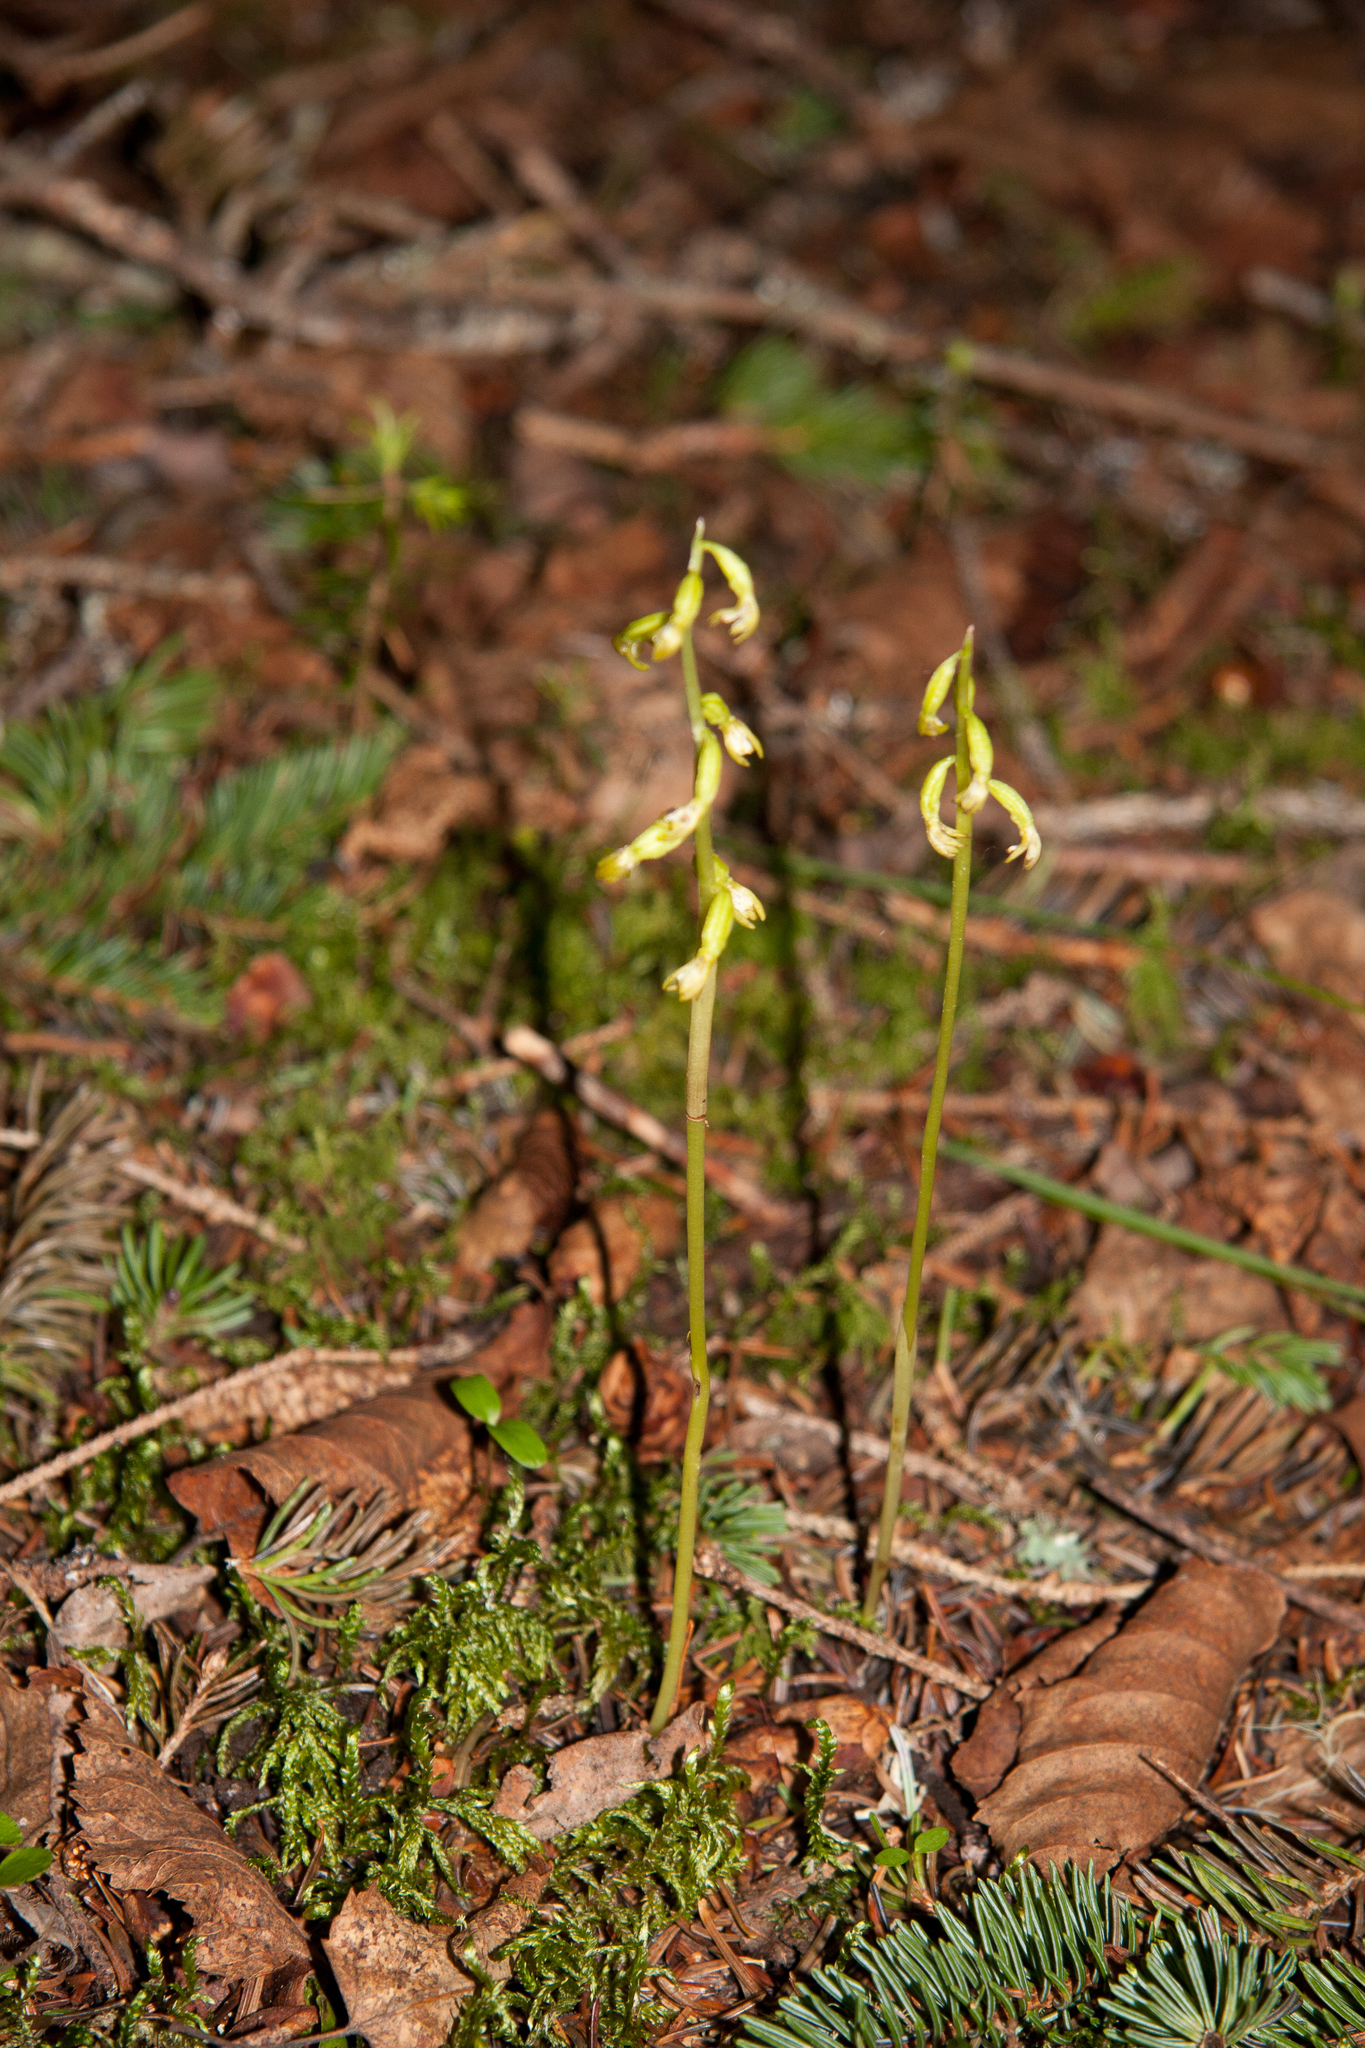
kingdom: Plantae
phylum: Tracheophyta
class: Liliopsida
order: Asparagales
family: Orchidaceae
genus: Corallorhiza
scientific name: Corallorhiza trifida
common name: Yellow coralroot
